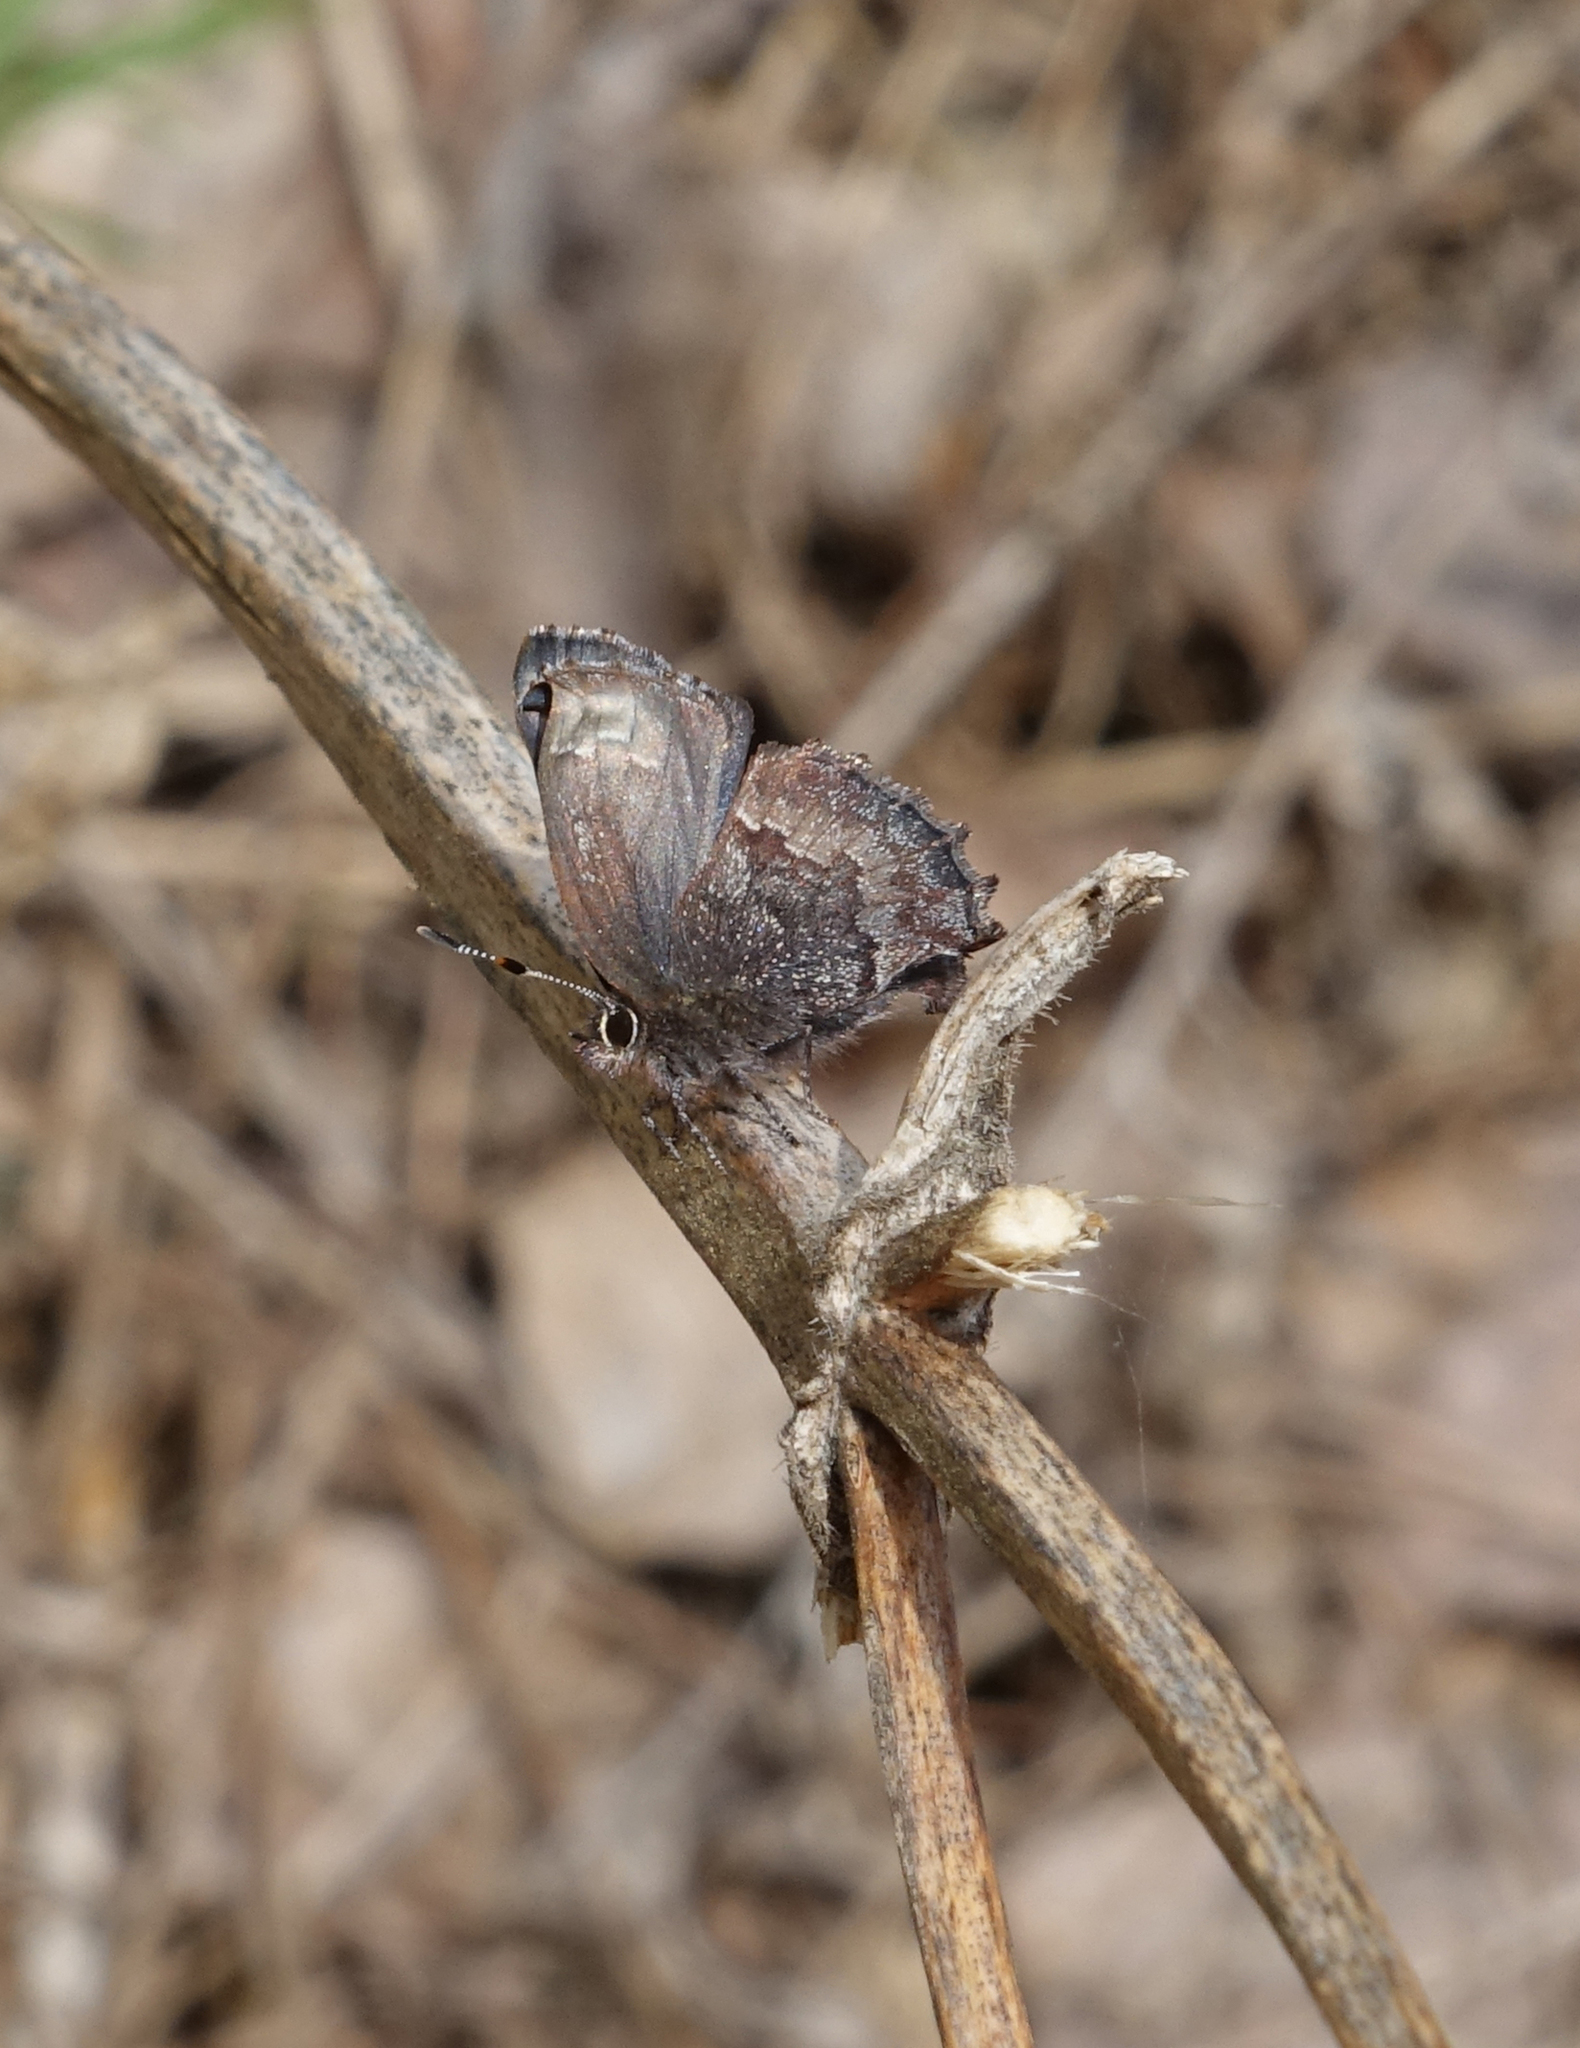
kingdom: Animalia
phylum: Arthropoda
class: Insecta
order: Lepidoptera
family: Lycaenidae
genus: Ginzia
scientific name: Ginzia Ahlbergia frivaldszkyi
